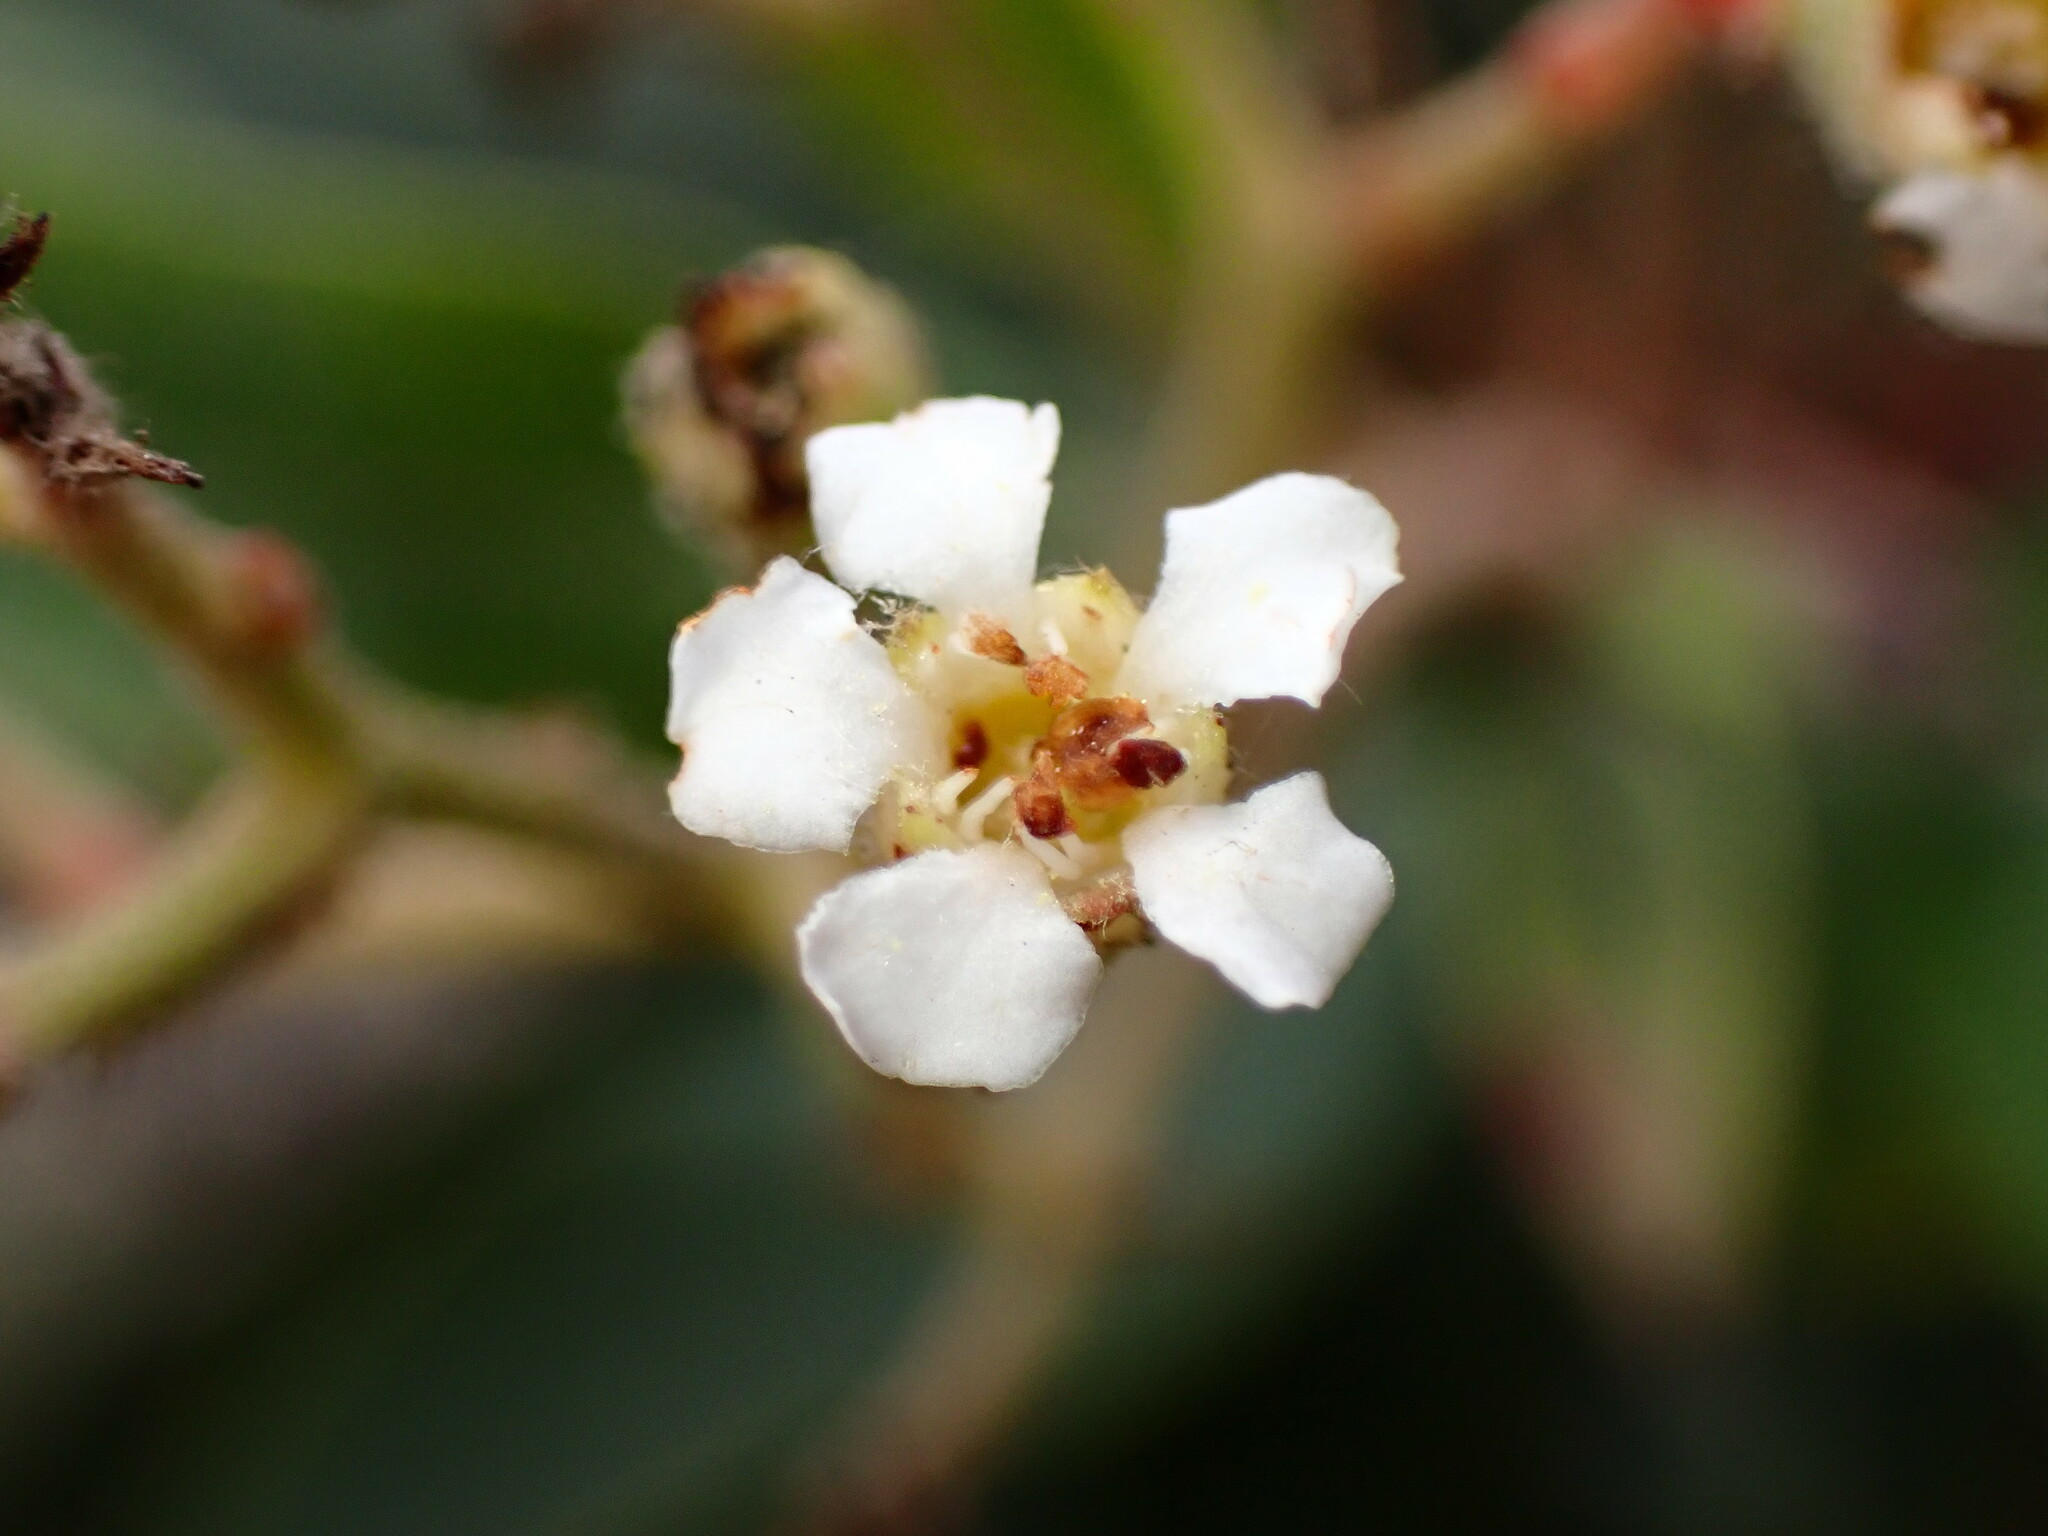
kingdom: Plantae
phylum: Tracheophyta
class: Magnoliopsida
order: Rosales
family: Rosaceae
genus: Heteromeles
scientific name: Heteromeles arbutifolia
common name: California-holly
